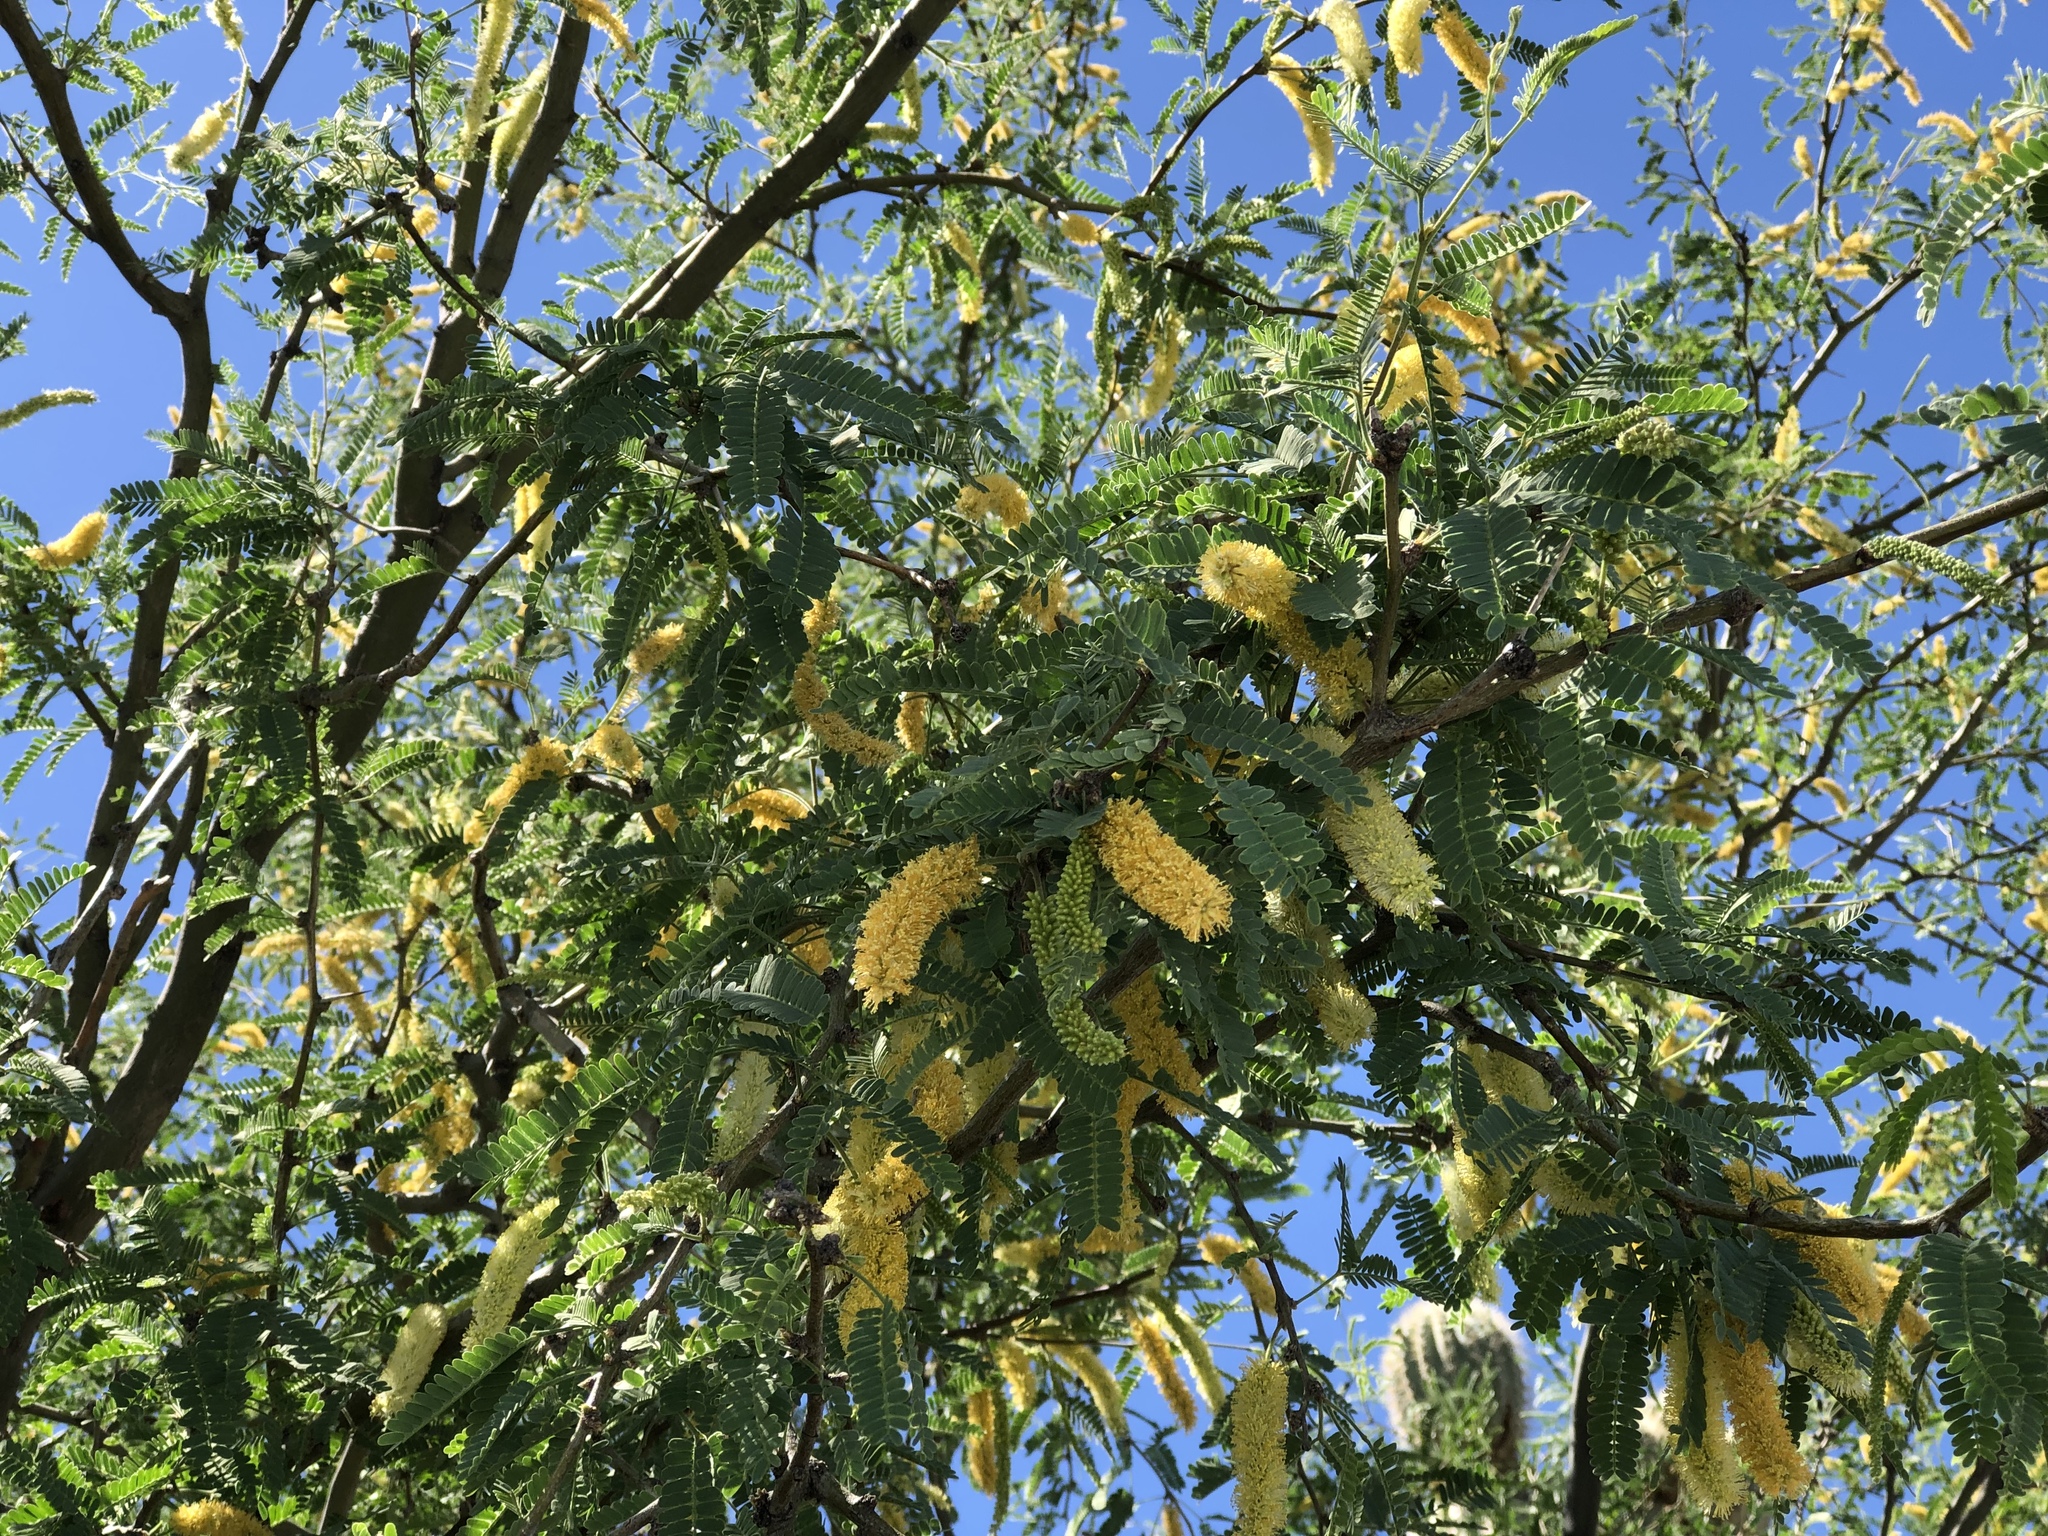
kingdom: Plantae
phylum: Tracheophyta
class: Magnoliopsida
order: Fabales
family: Fabaceae
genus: Prosopis
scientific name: Prosopis velutina
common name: Velvet mesquite
